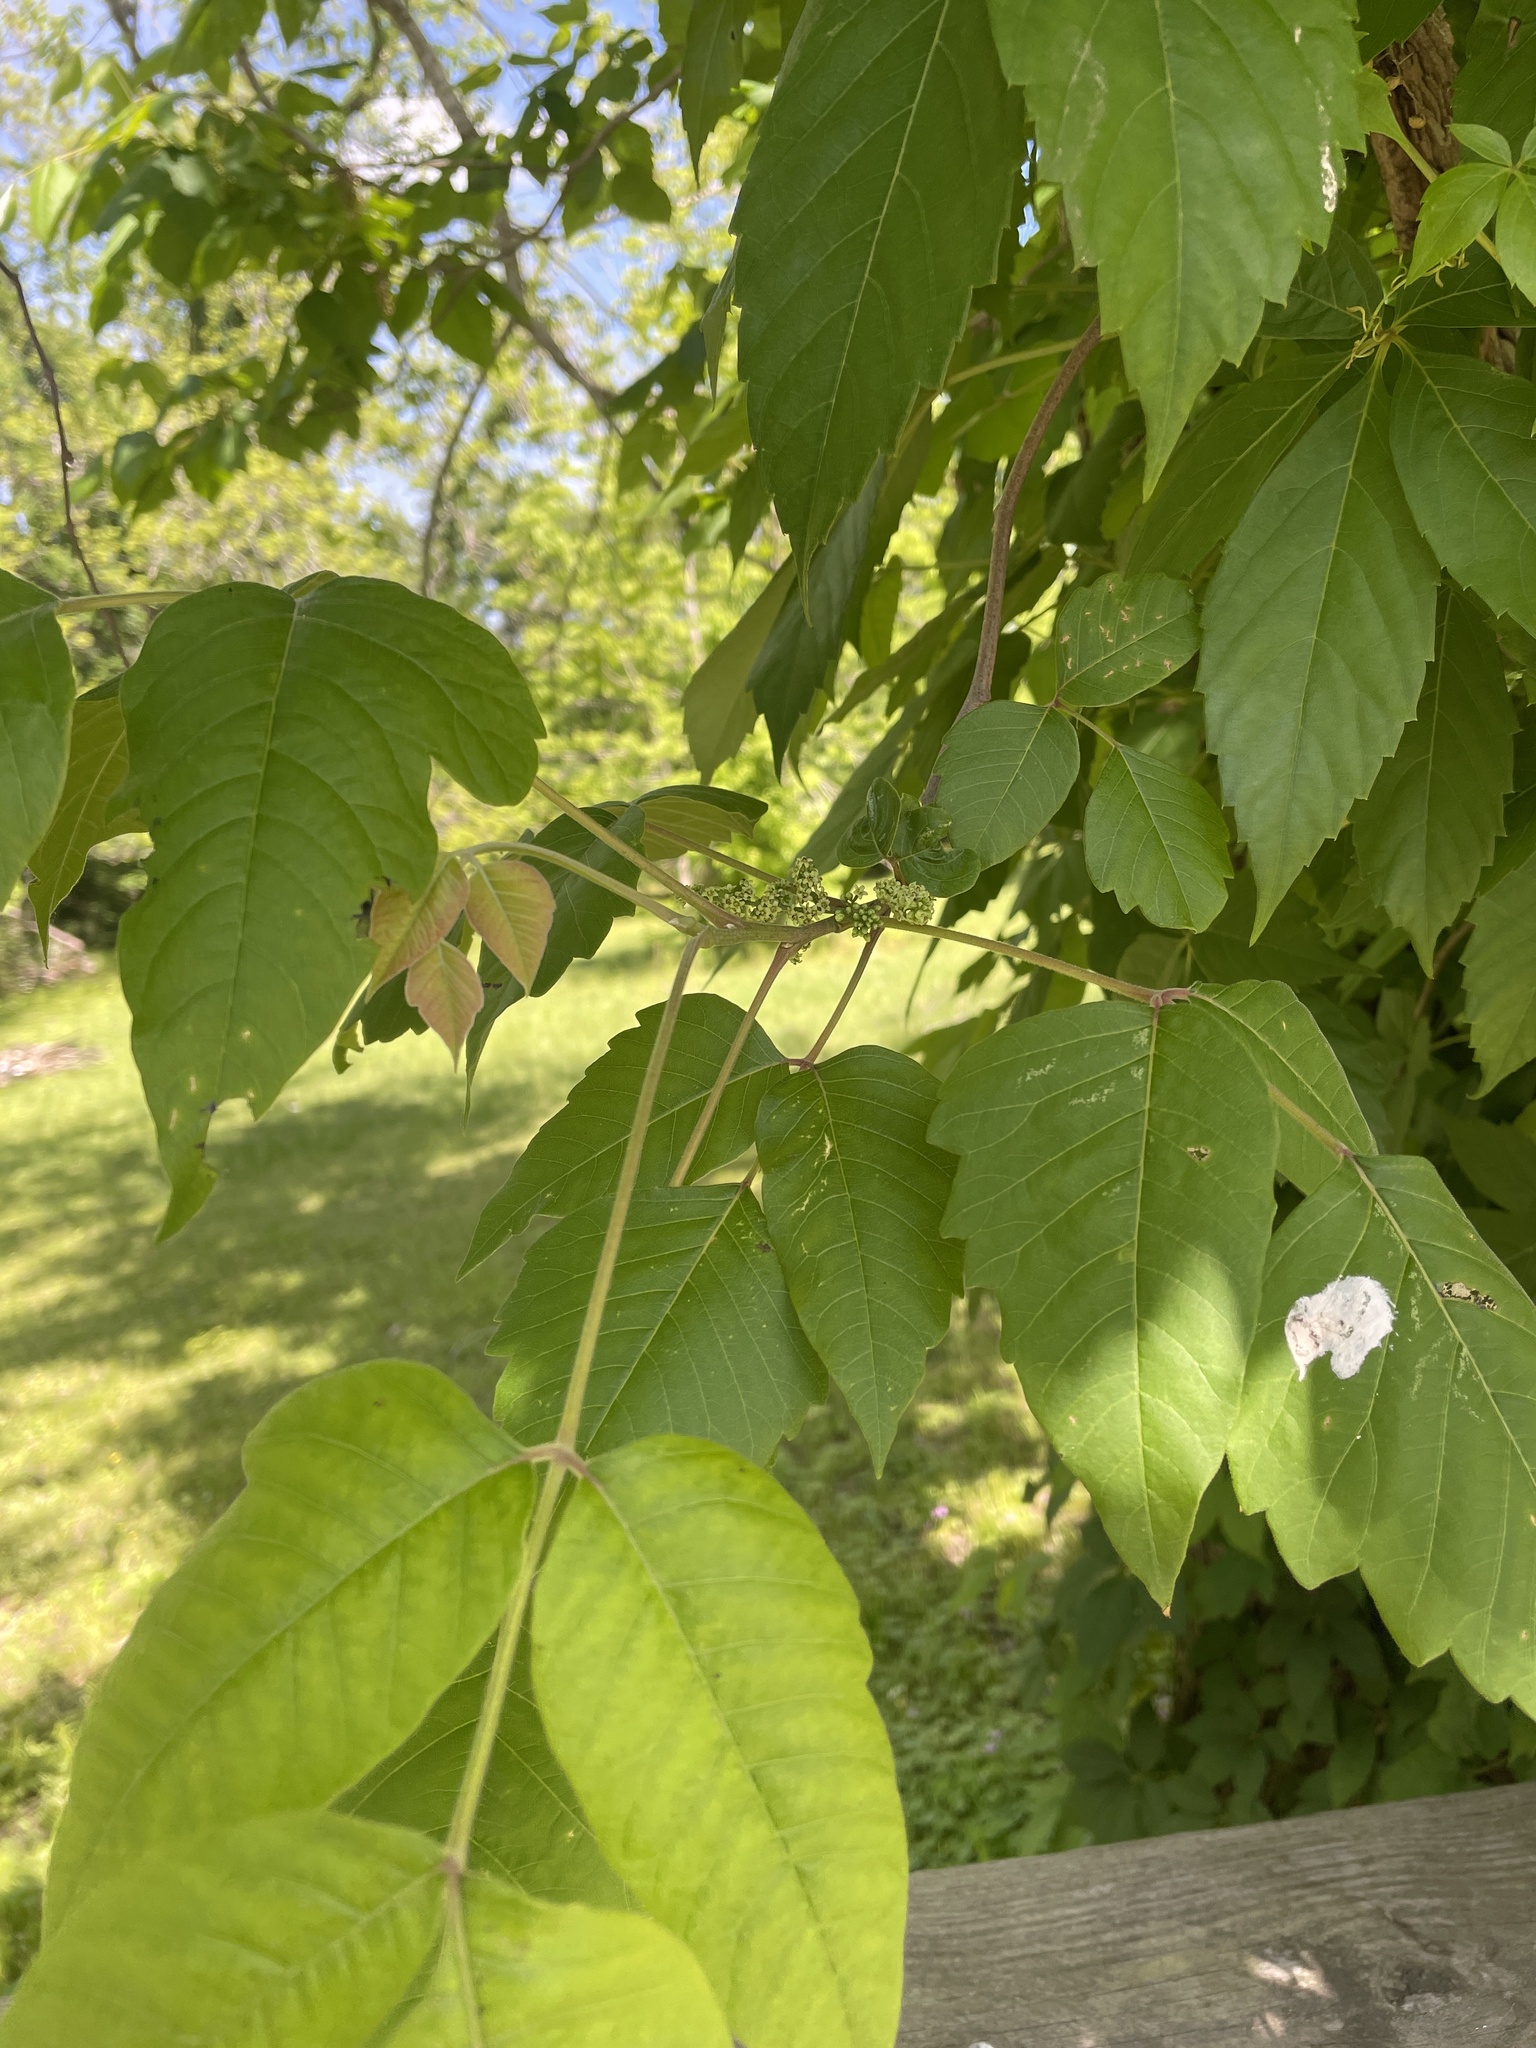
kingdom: Plantae
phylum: Tracheophyta
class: Magnoliopsida
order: Sapindales
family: Anacardiaceae
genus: Toxicodendron
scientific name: Toxicodendron radicans
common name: Poison ivy
